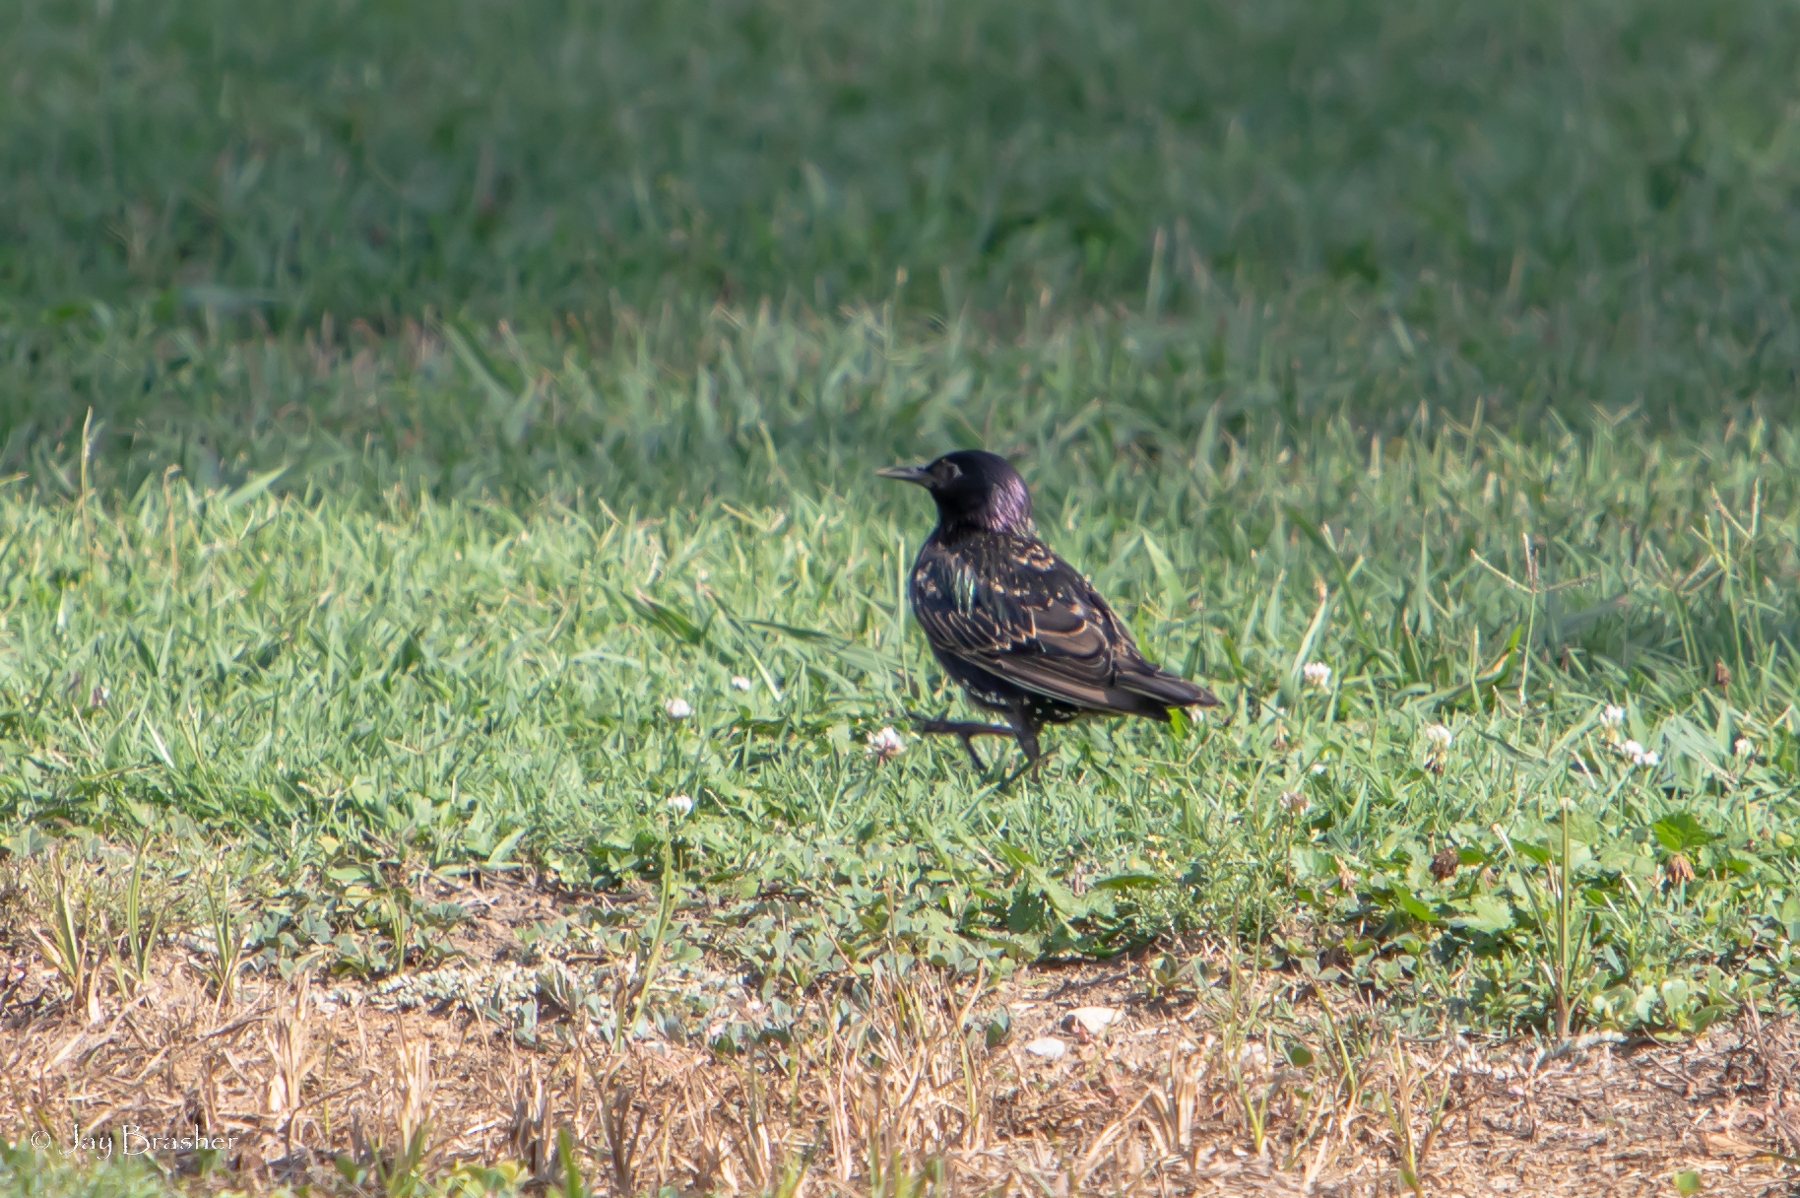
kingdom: Animalia
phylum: Chordata
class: Aves
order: Passeriformes
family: Sturnidae
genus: Sturnus
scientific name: Sturnus vulgaris
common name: Common starling
